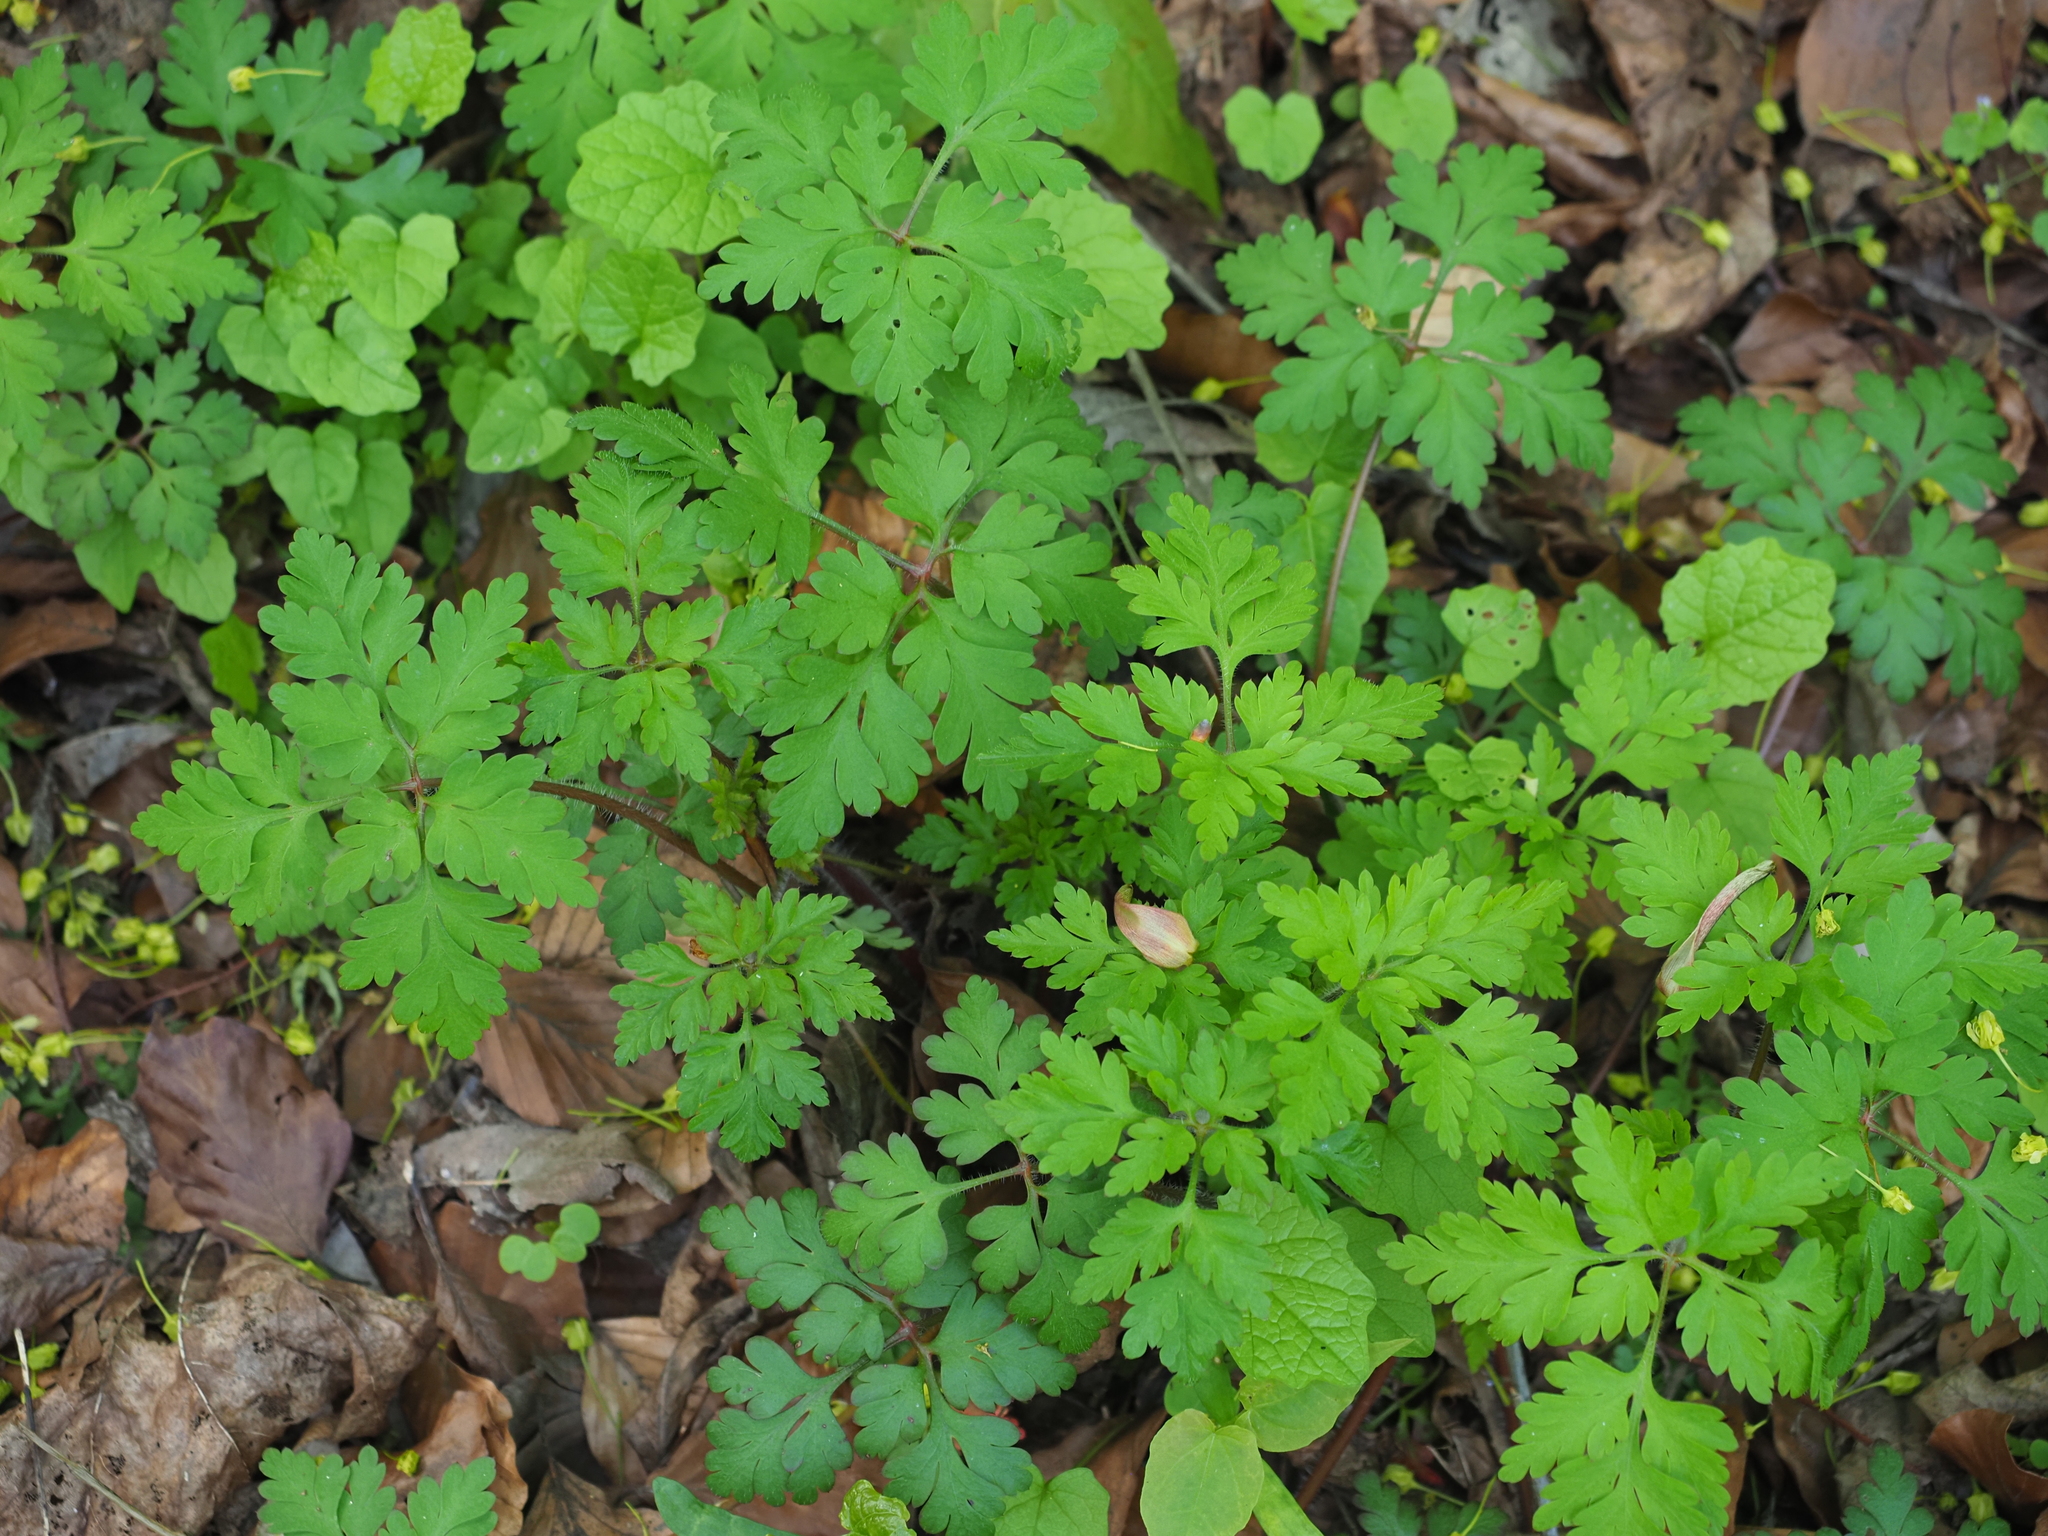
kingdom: Plantae
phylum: Tracheophyta
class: Magnoliopsida
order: Geraniales
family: Geraniaceae
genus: Geranium
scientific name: Geranium robertianum
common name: Herb-robert
